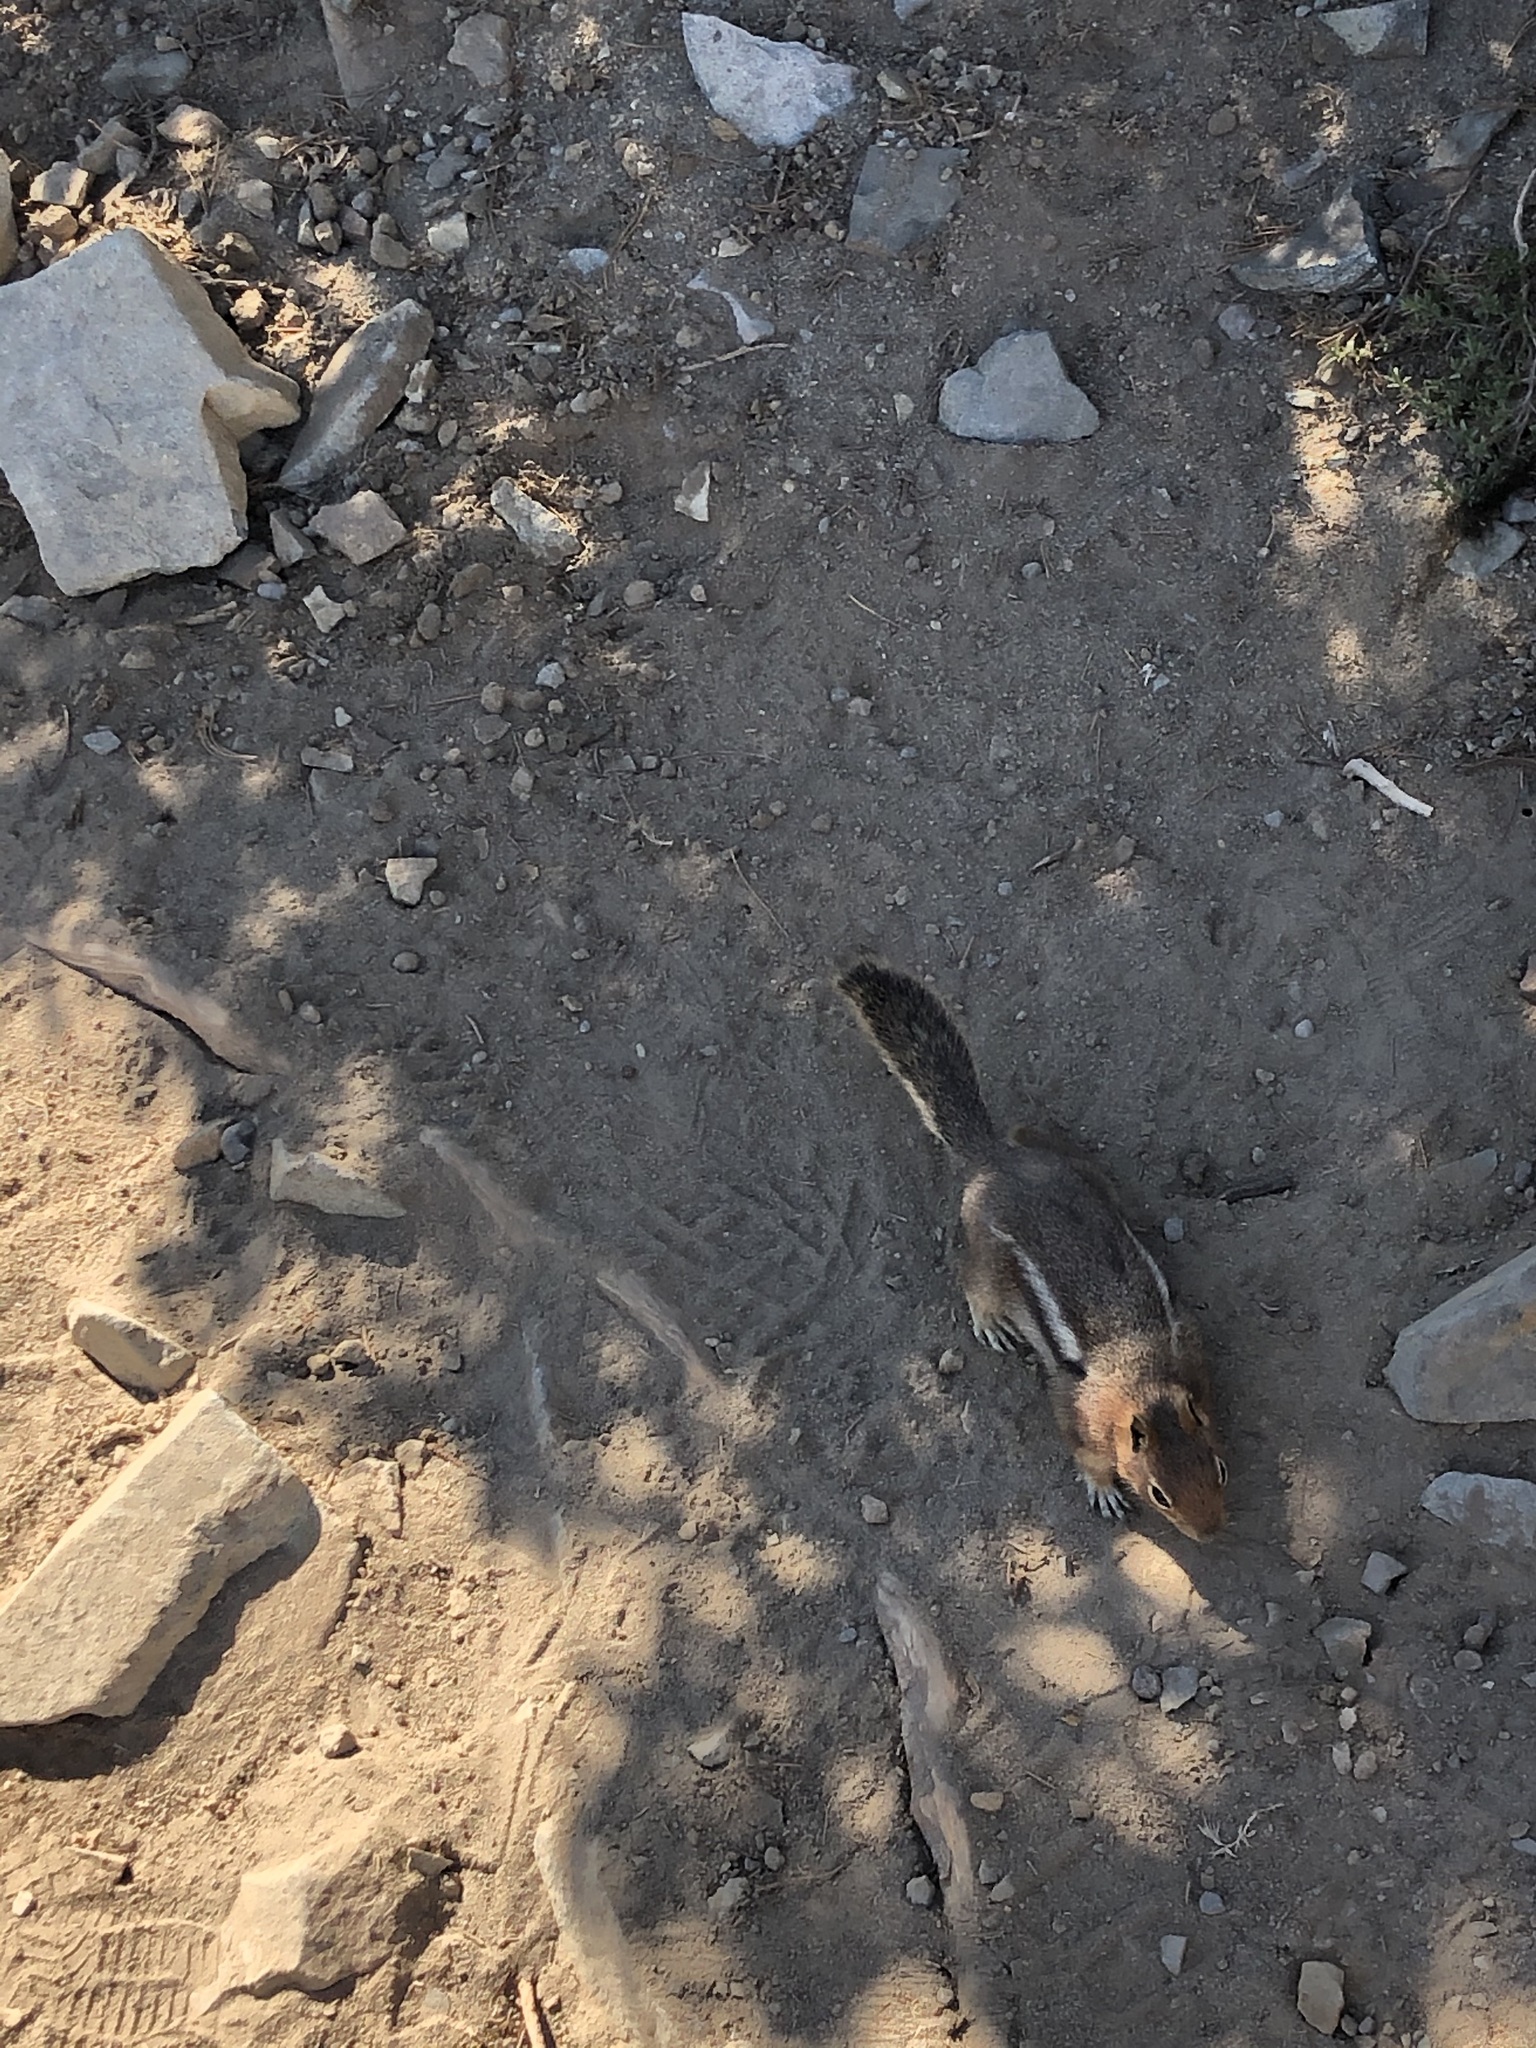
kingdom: Animalia
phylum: Chordata
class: Mammalia
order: Rodentia
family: Sciuridae
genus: Callospermophilus
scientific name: Callospermophilus saturatus
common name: Cascade golden-mantled ground squirrel
